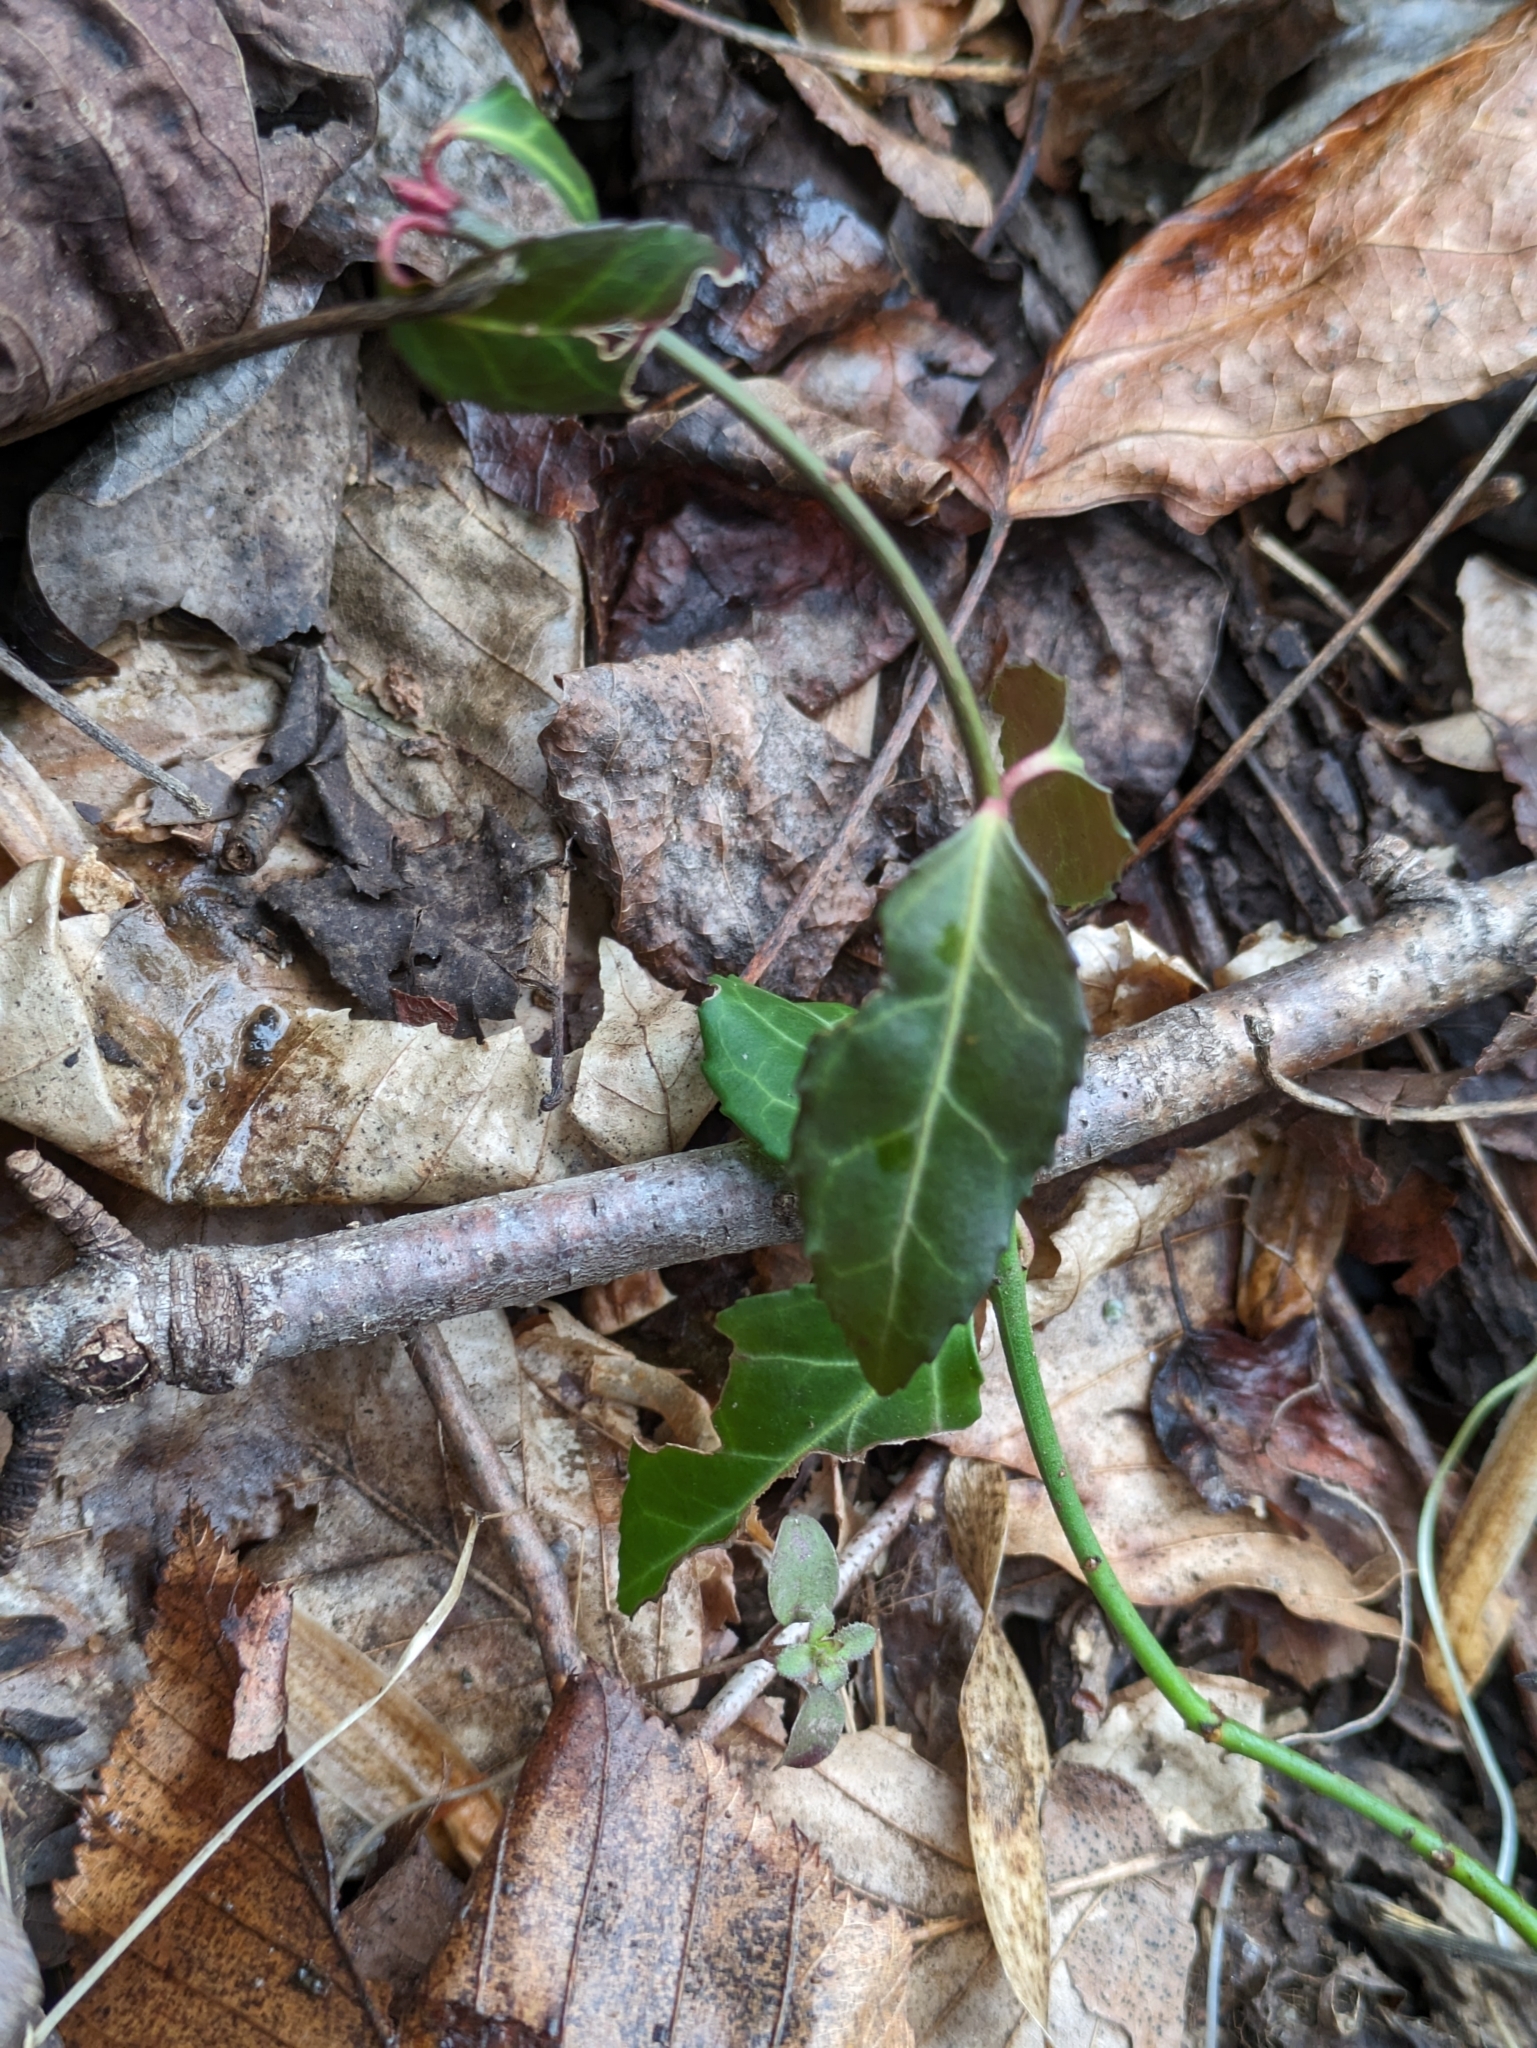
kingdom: Plantae
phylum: Tracheophyta
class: Magnoliopsida
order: Celastrales
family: Celastraceae
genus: Euonymus
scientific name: Euonymus fortunei
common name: Climbing euonymus
